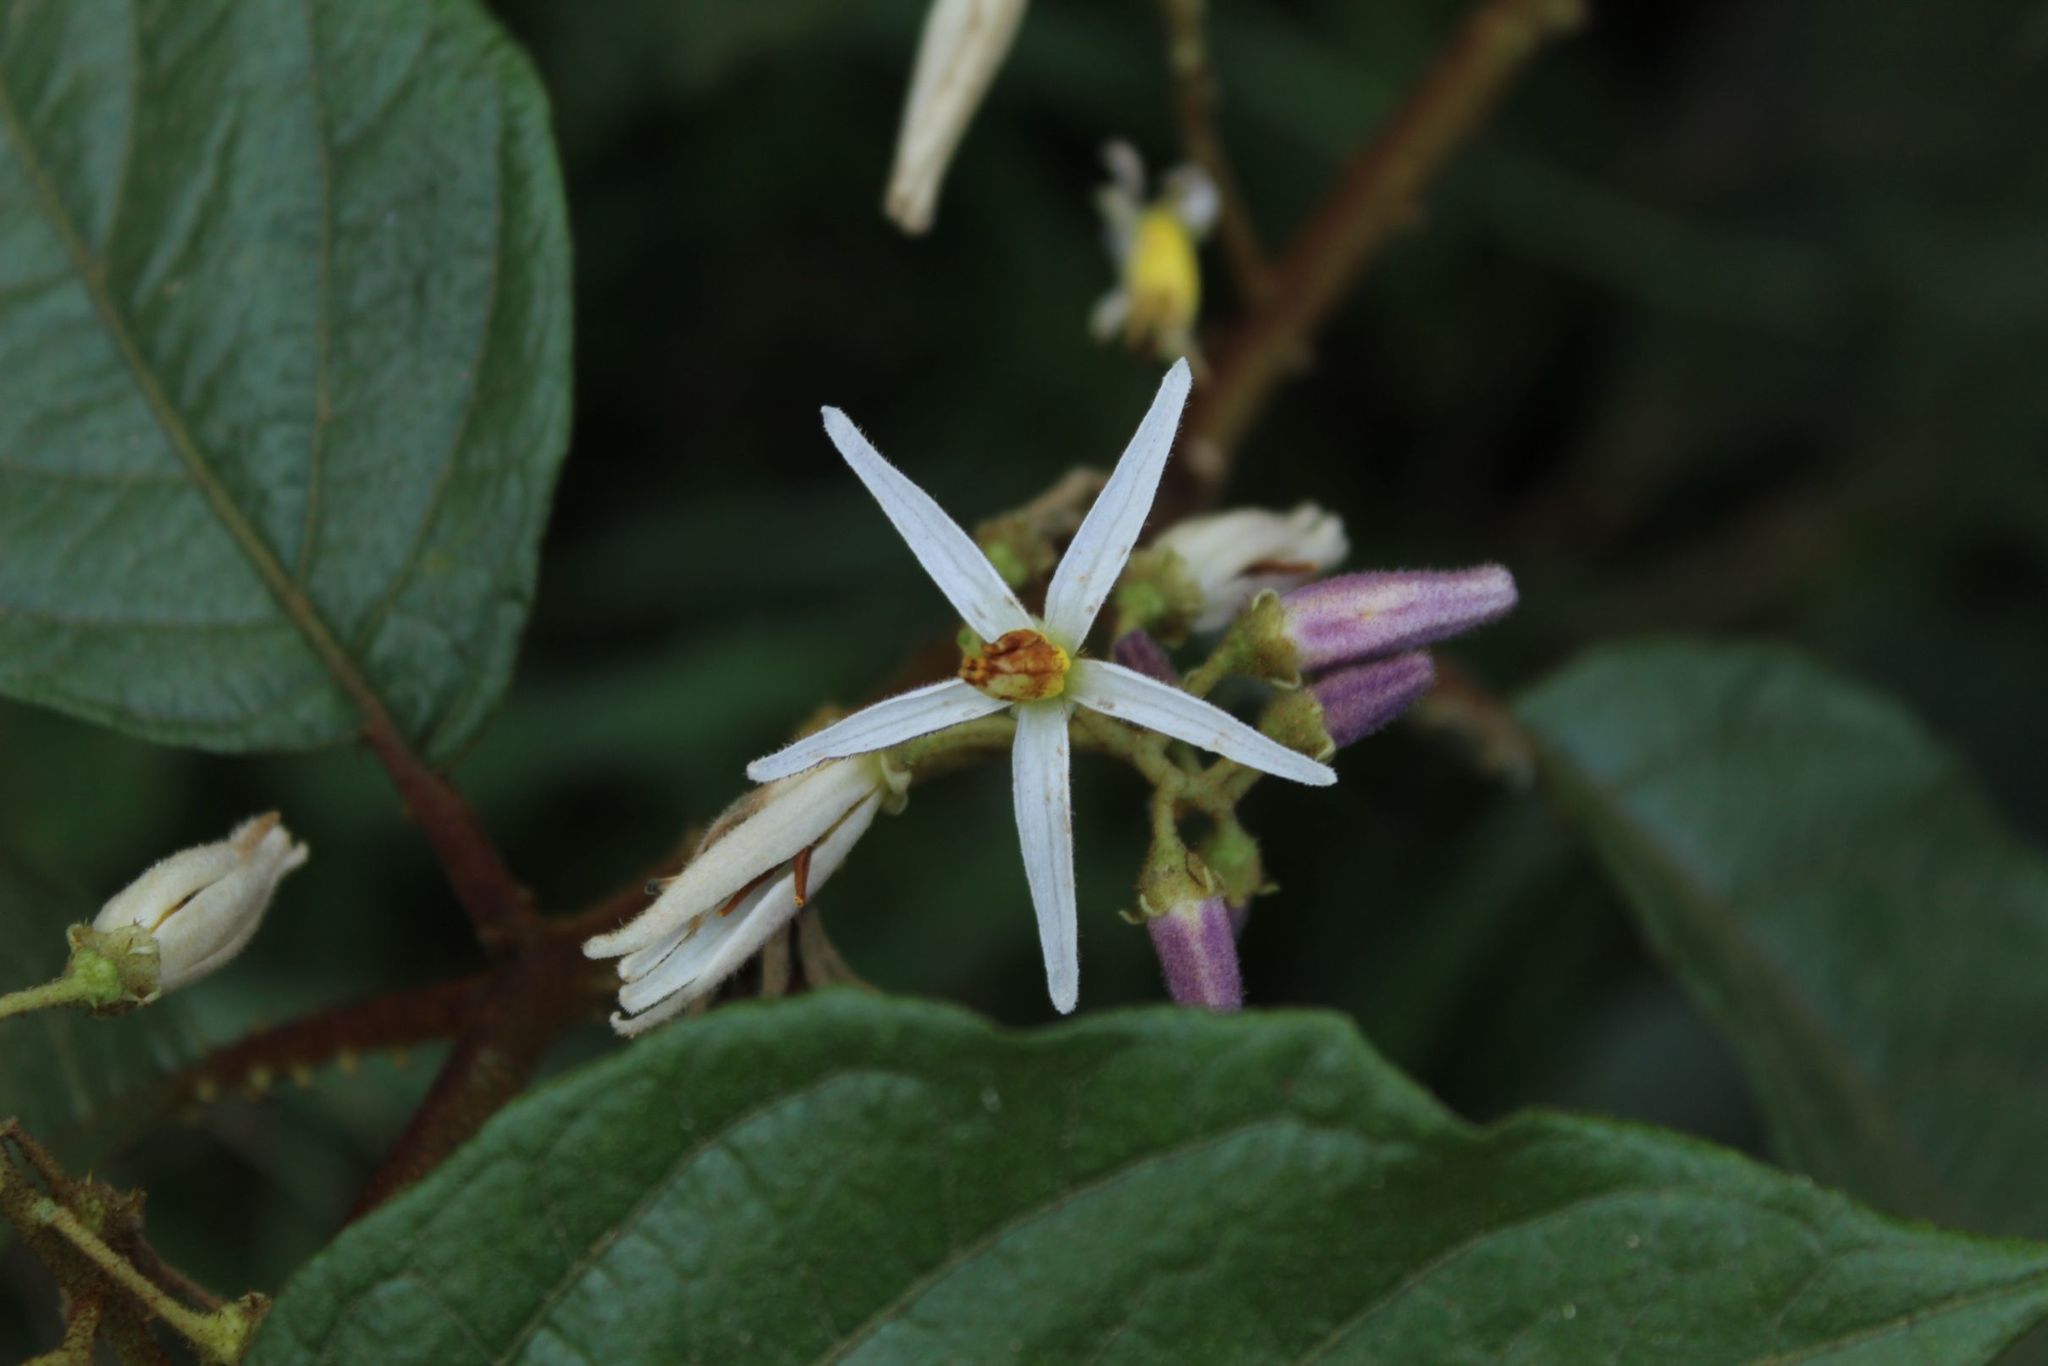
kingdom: Plantae
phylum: Tracheophyta
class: Magnoliopsida
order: Solanales
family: Solanaceae
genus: Solanum
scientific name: Solanum aturense
